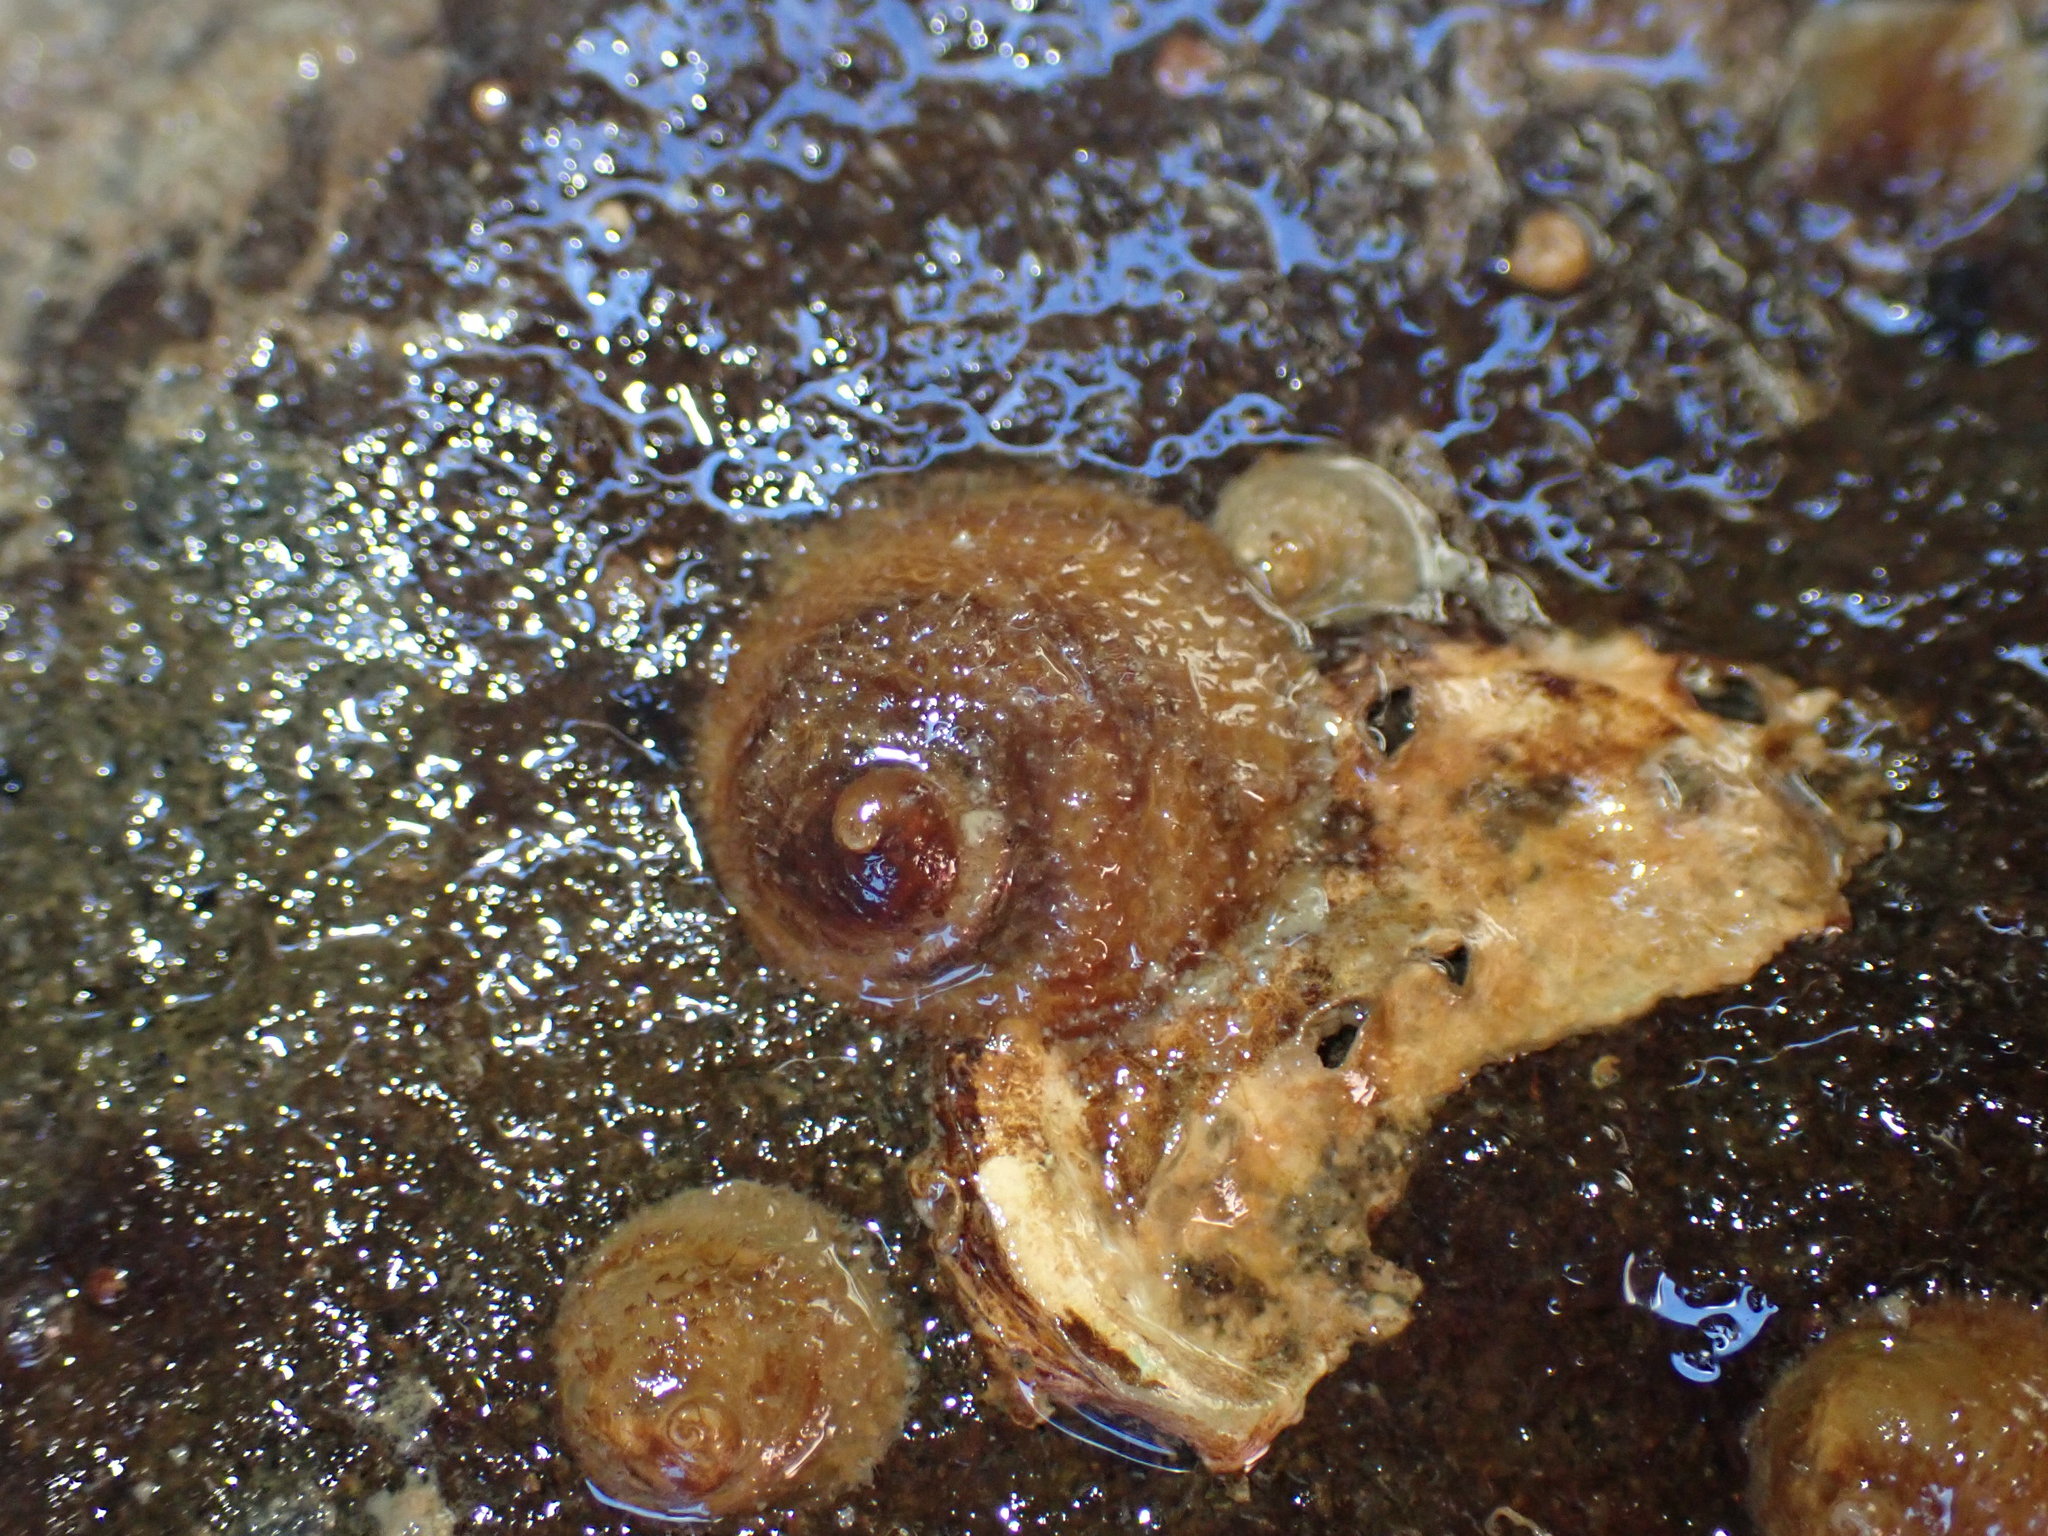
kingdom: Animalia
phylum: Mollusca
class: Gastropoda
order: Littorinimorpha
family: Calyptraeidae
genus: Sigapatella
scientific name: Sigapatella novaezelandiae
